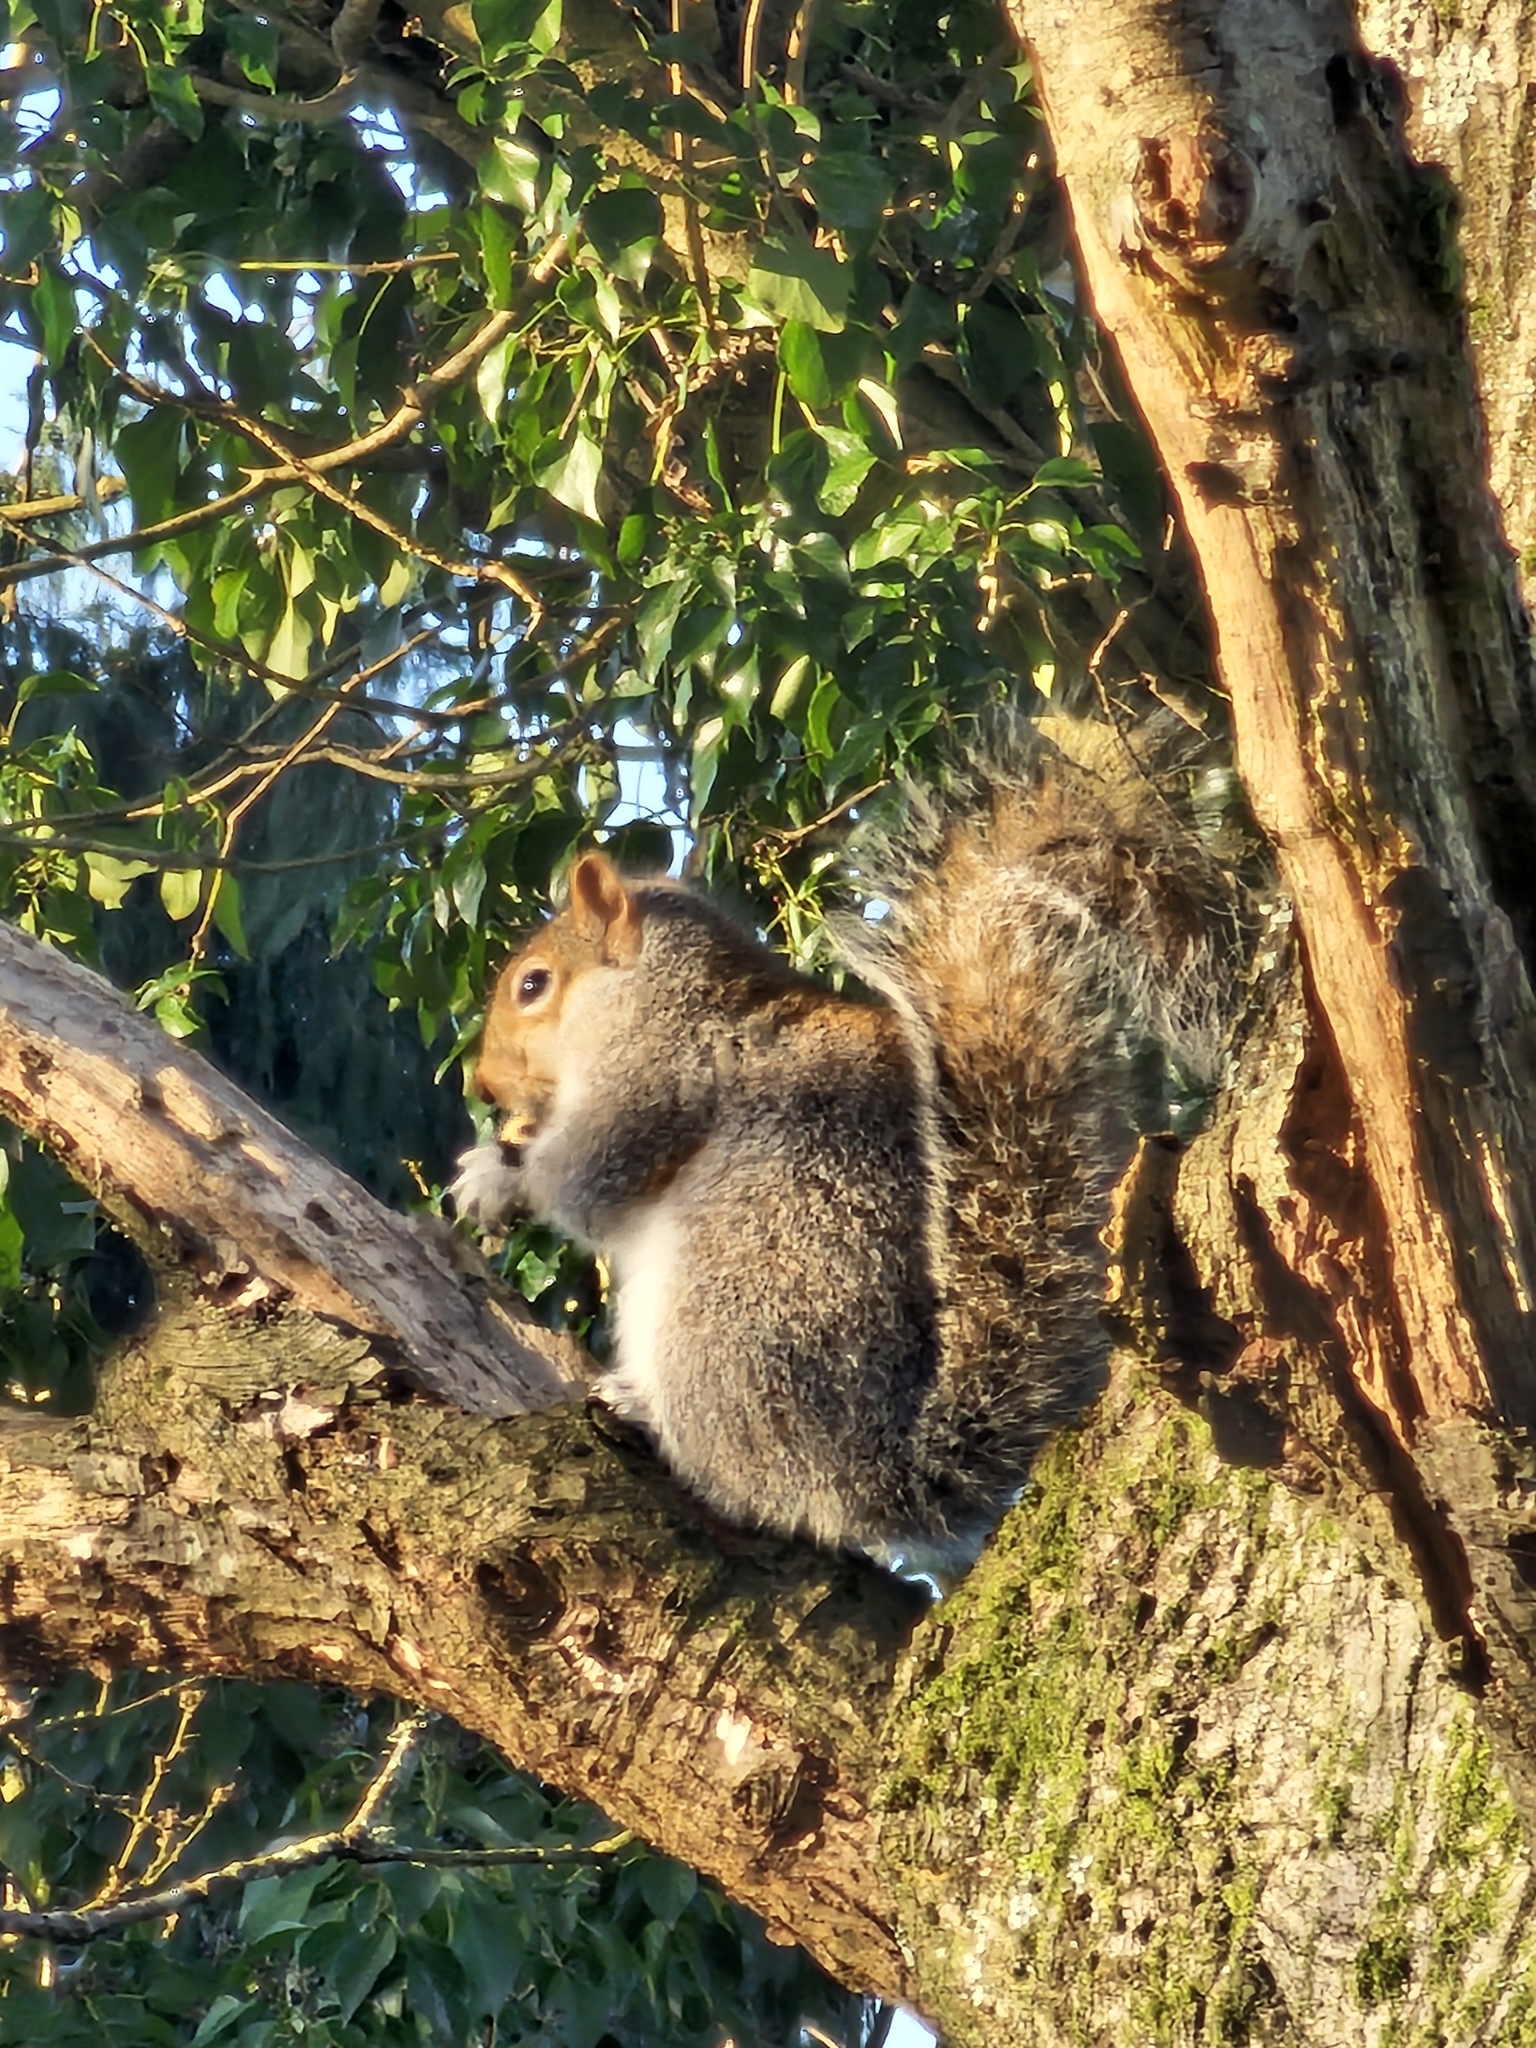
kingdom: Animalia
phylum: Chordata
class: Mammalia
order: Rodentia
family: Sciuridae
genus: Sciurus
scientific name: Sciurus carolinensis
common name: Eastern gray squirrel
